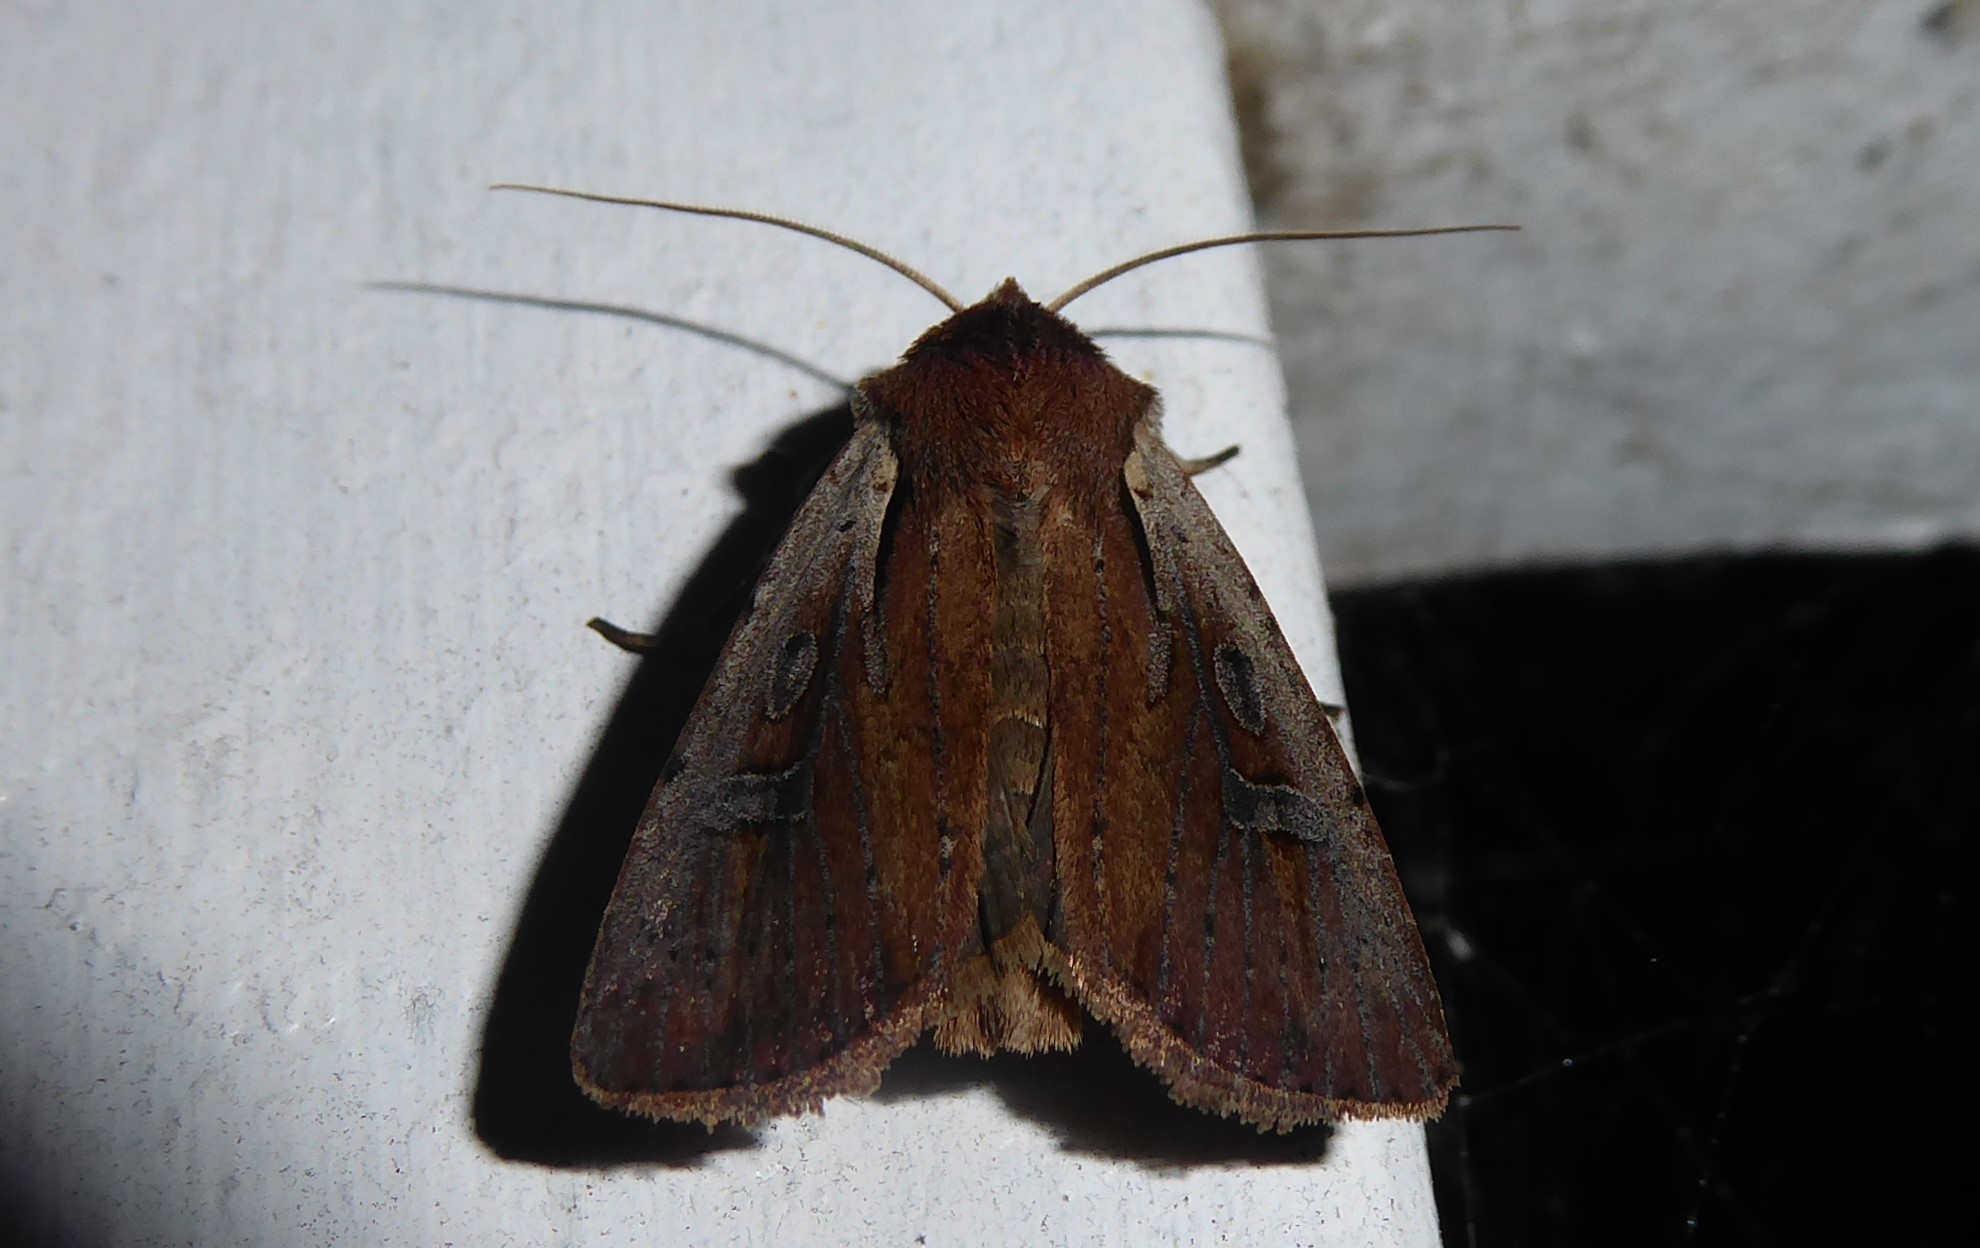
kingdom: Animalia
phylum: Arthropoda
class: Insecta
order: Lepidoptera
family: Noctuidae
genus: Ichneutica
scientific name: Ichneutica atristriga
